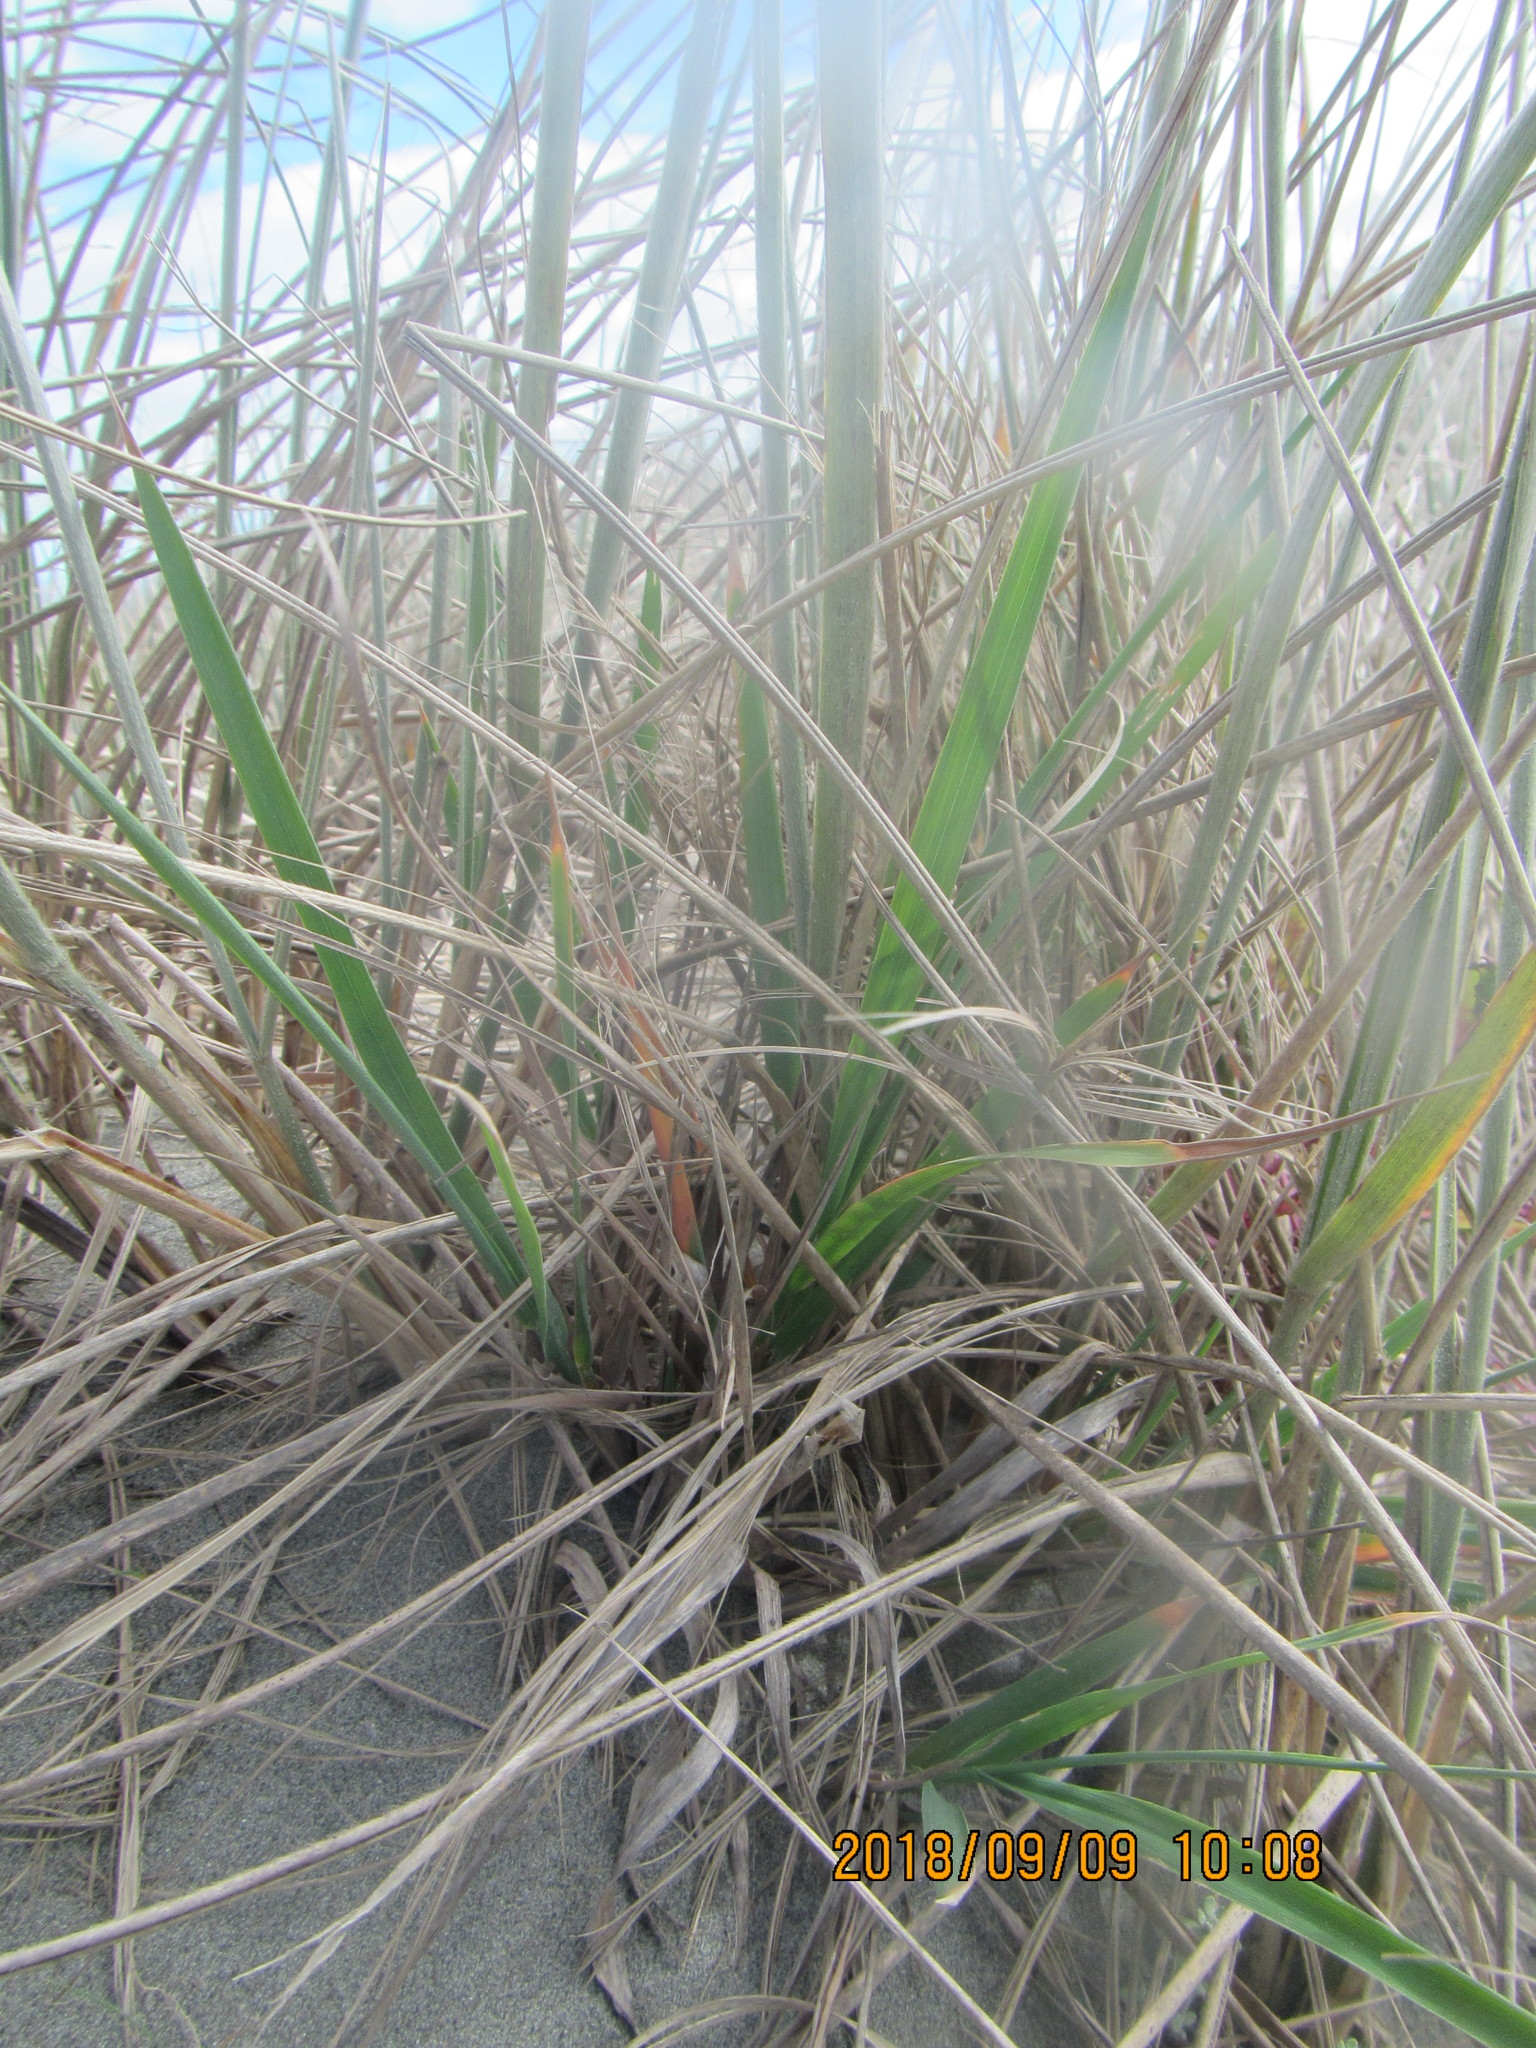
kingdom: Plantae
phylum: Tracheophyta
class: Liliopsida
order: Poales
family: Poaceae
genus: Lachnagrostis
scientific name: Lachnagrostis billardierei
